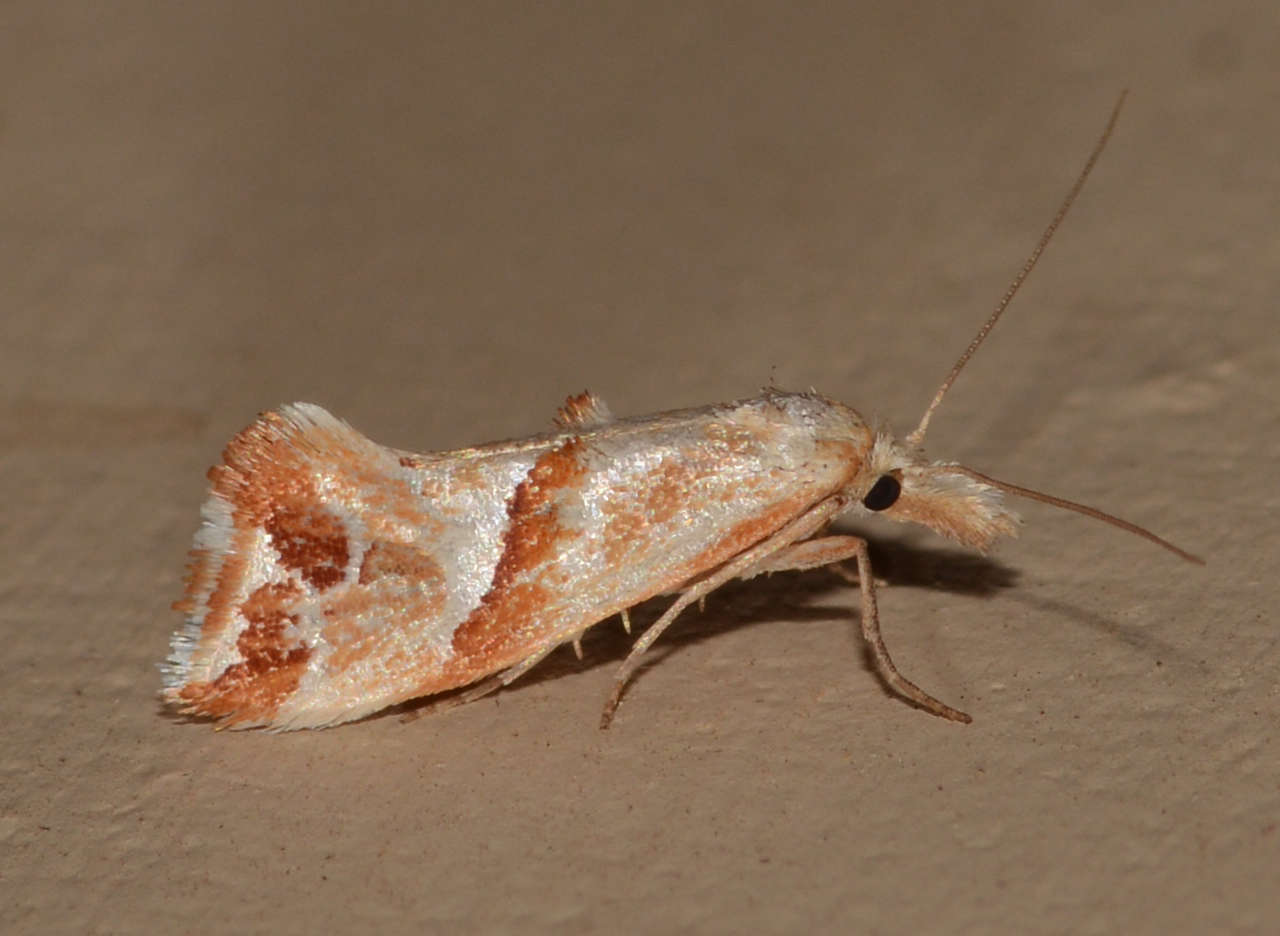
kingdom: Animalia
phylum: Arthropoda
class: Insecta
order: Lepidoptera
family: Tortricidae
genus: Heliocosma
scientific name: Heliocosma
